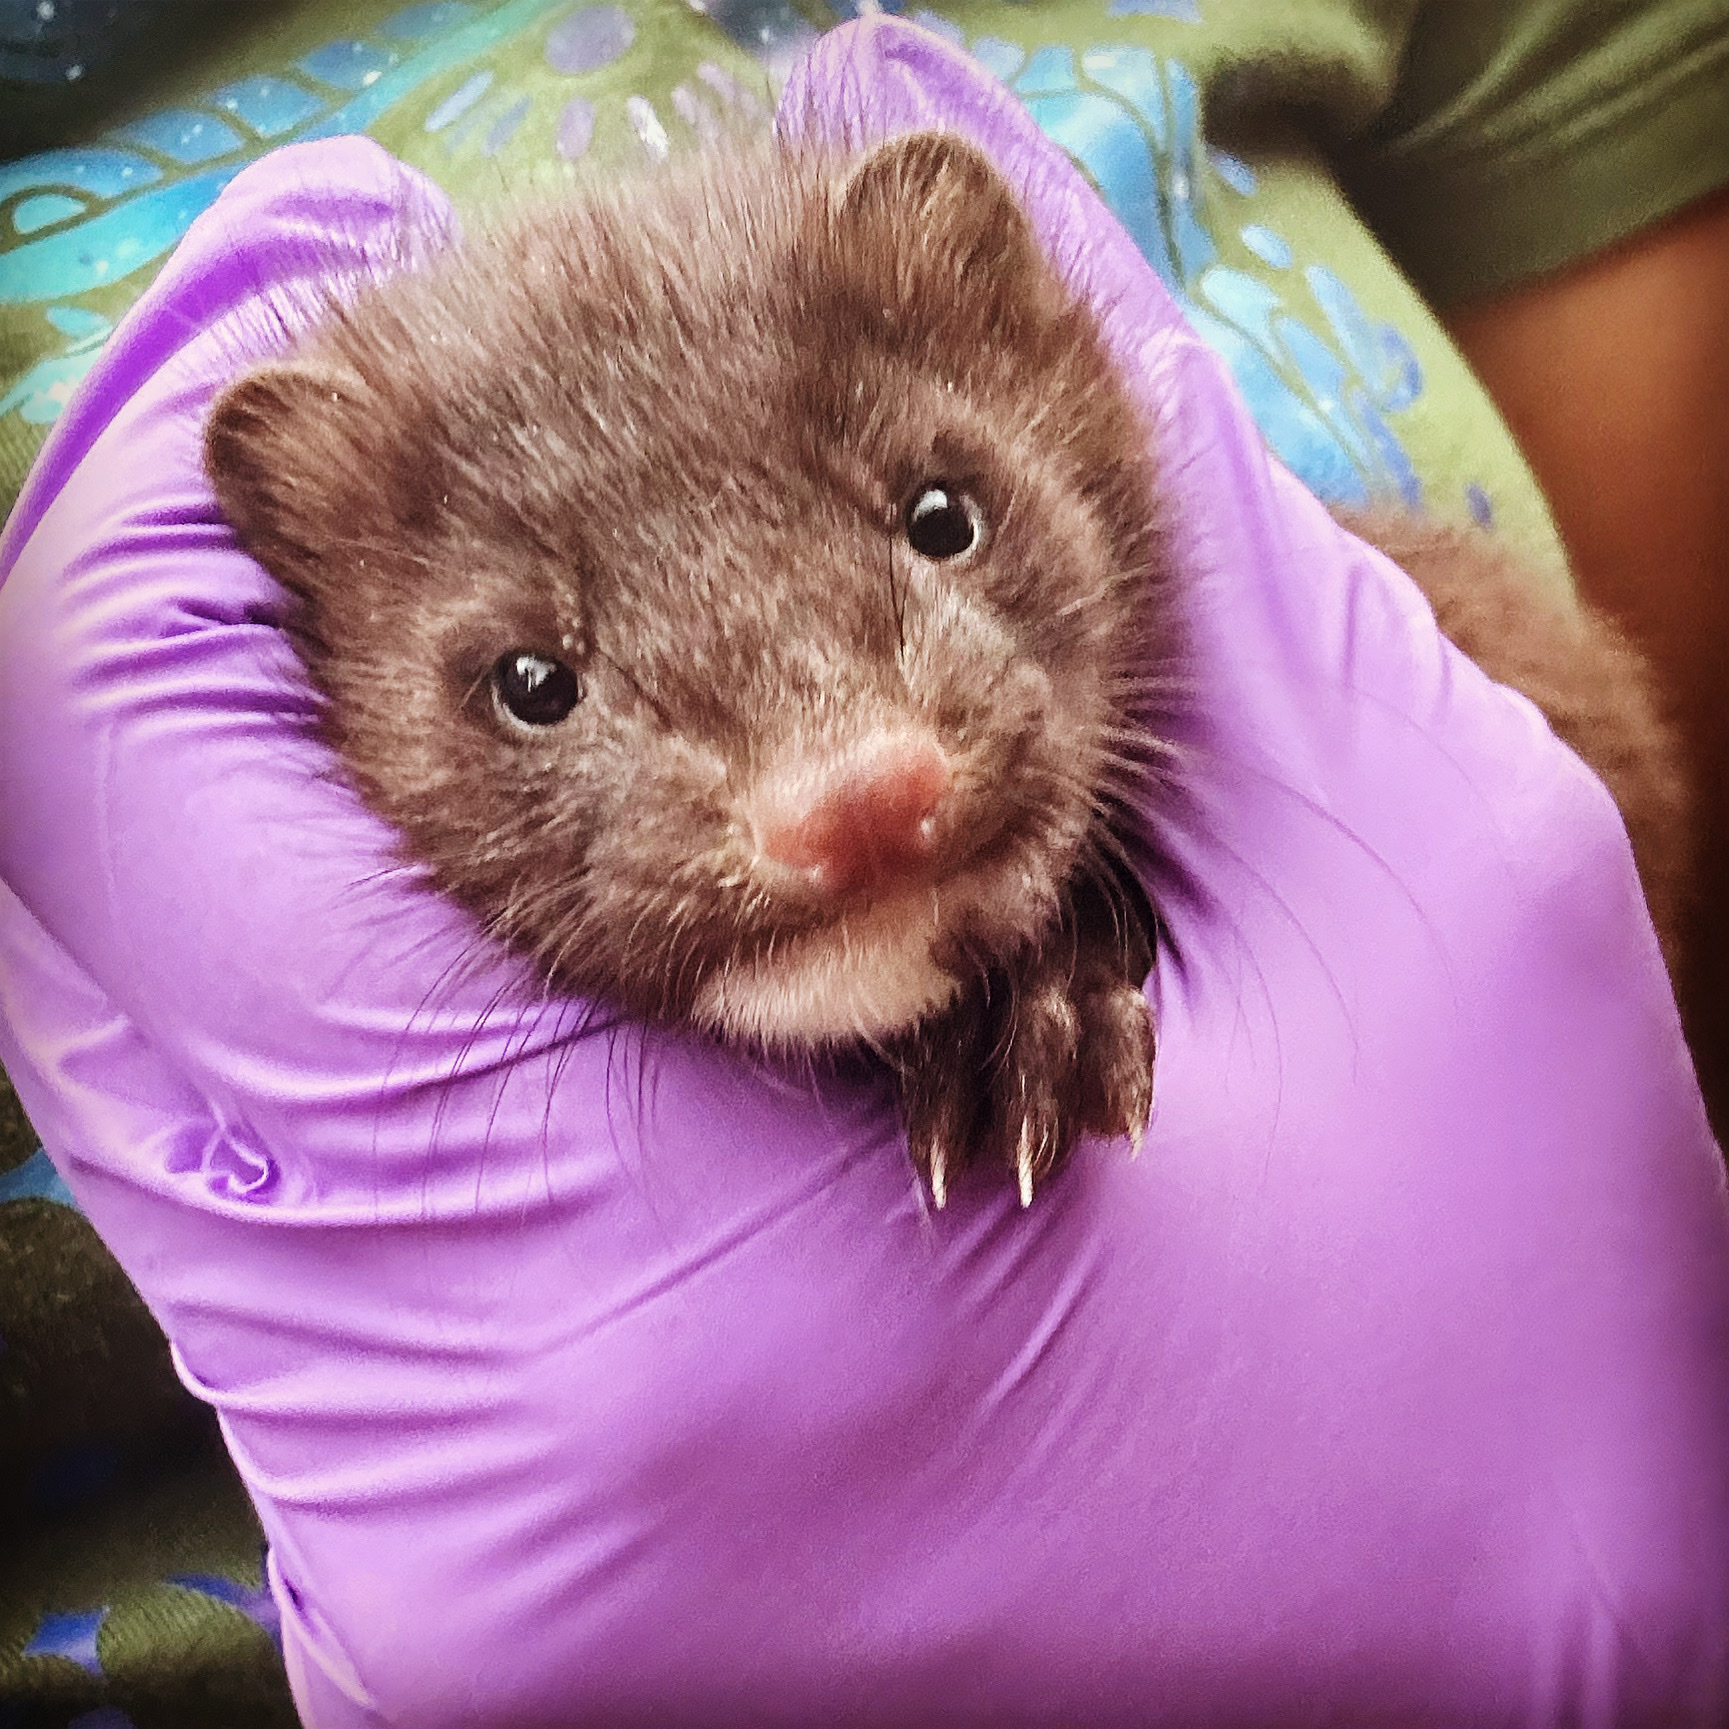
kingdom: Animalia
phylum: Chordata
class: Mammalia
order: Carnivora
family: Mustelidae
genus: Mustela
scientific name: Mustela
